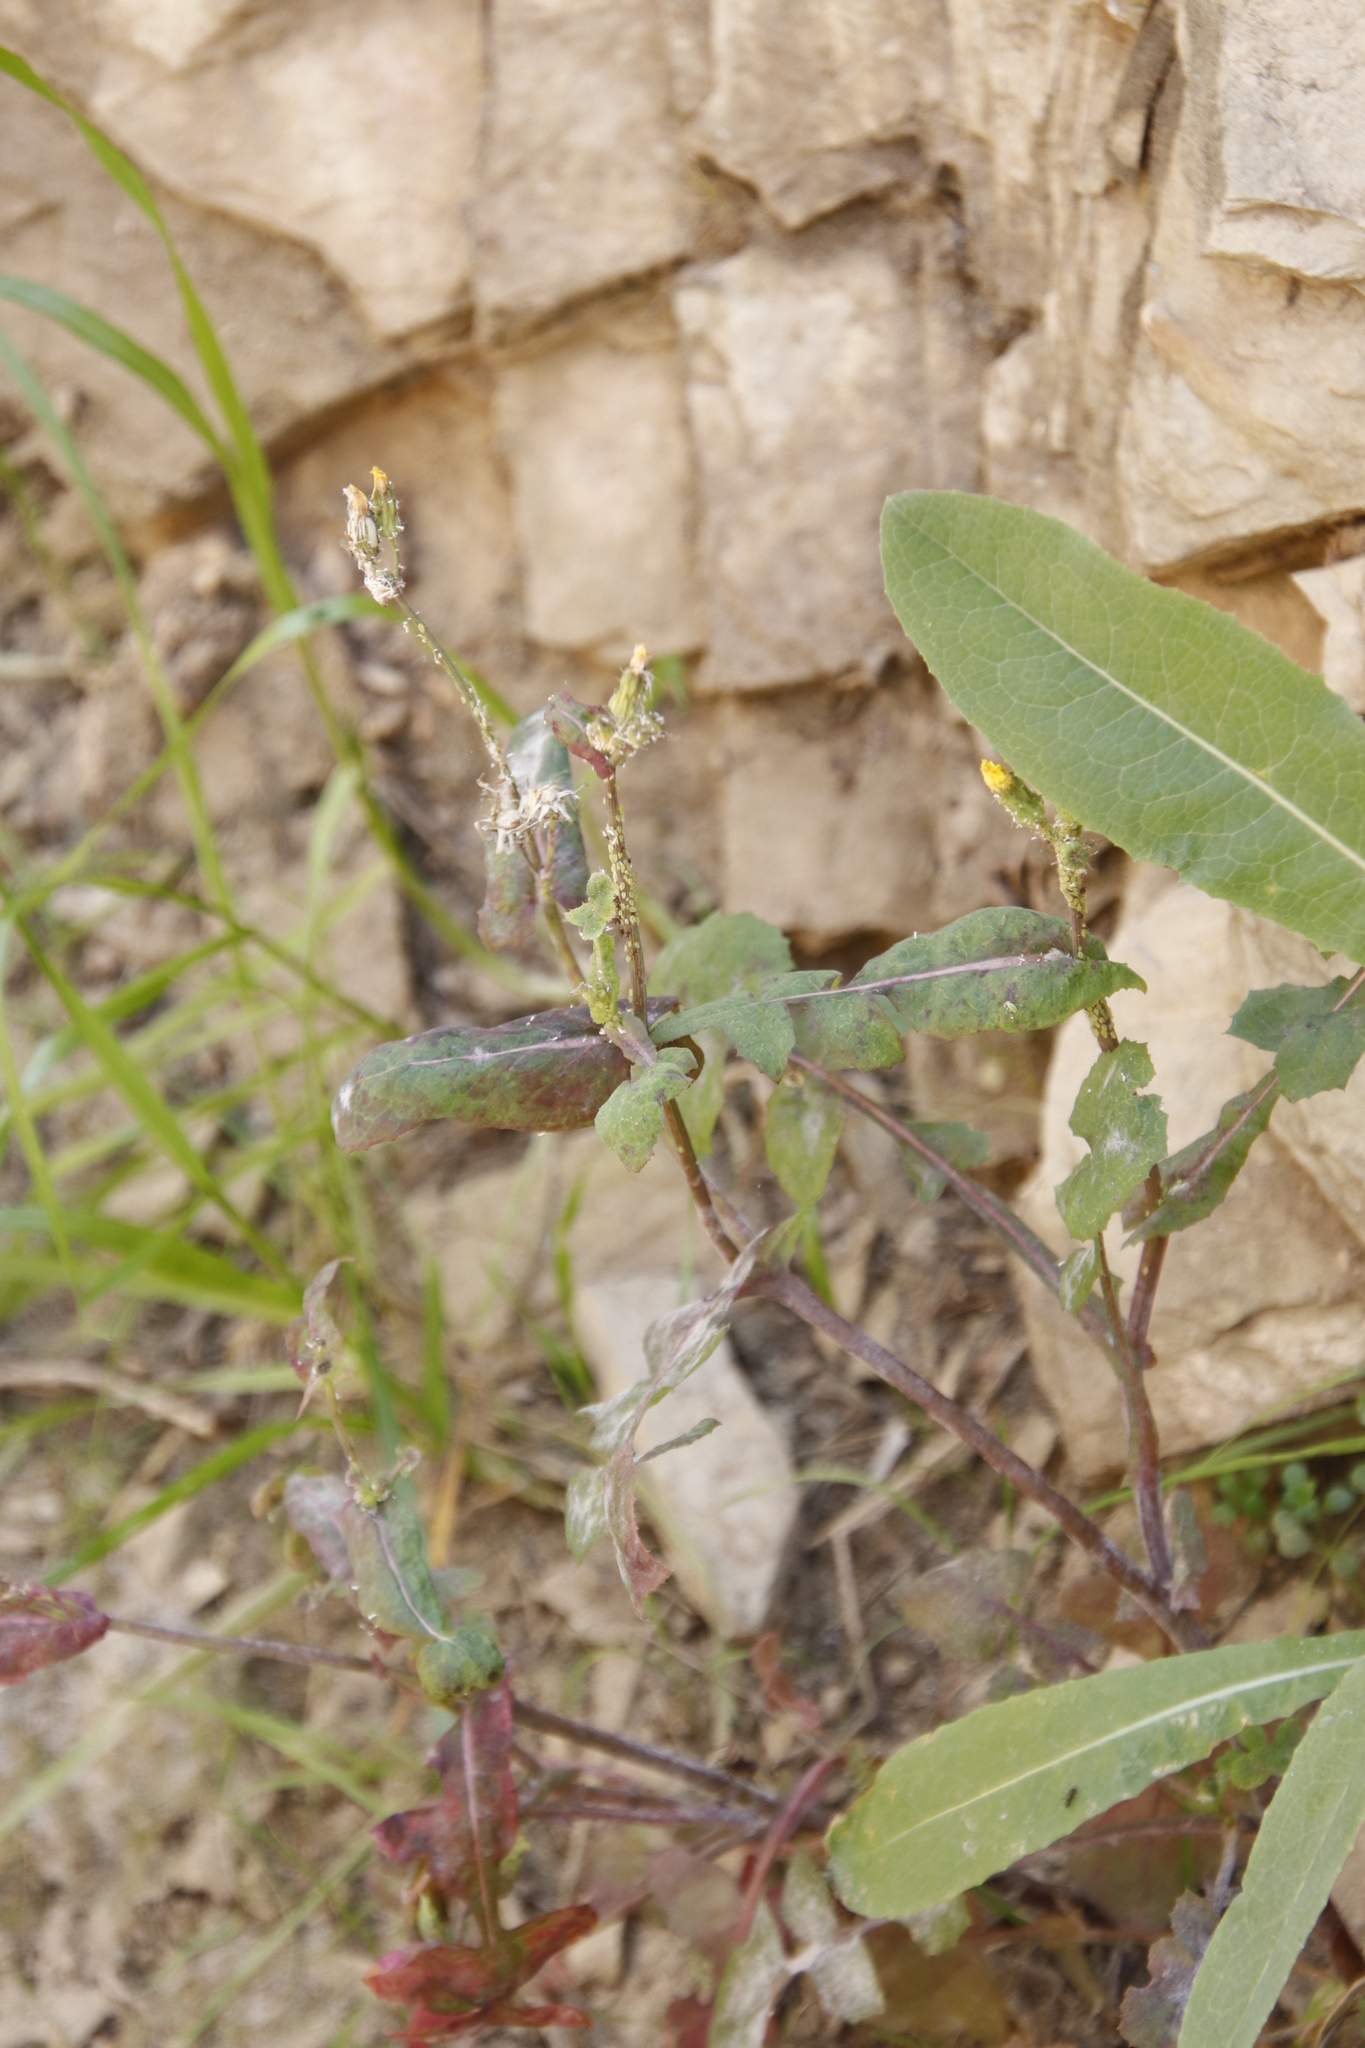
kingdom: Plantae
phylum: Tracheophyta
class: Magnoliopsida
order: Asterales
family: Asteraceae
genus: Sonchus
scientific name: Sonchus oleraceus
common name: Common sowthistle
